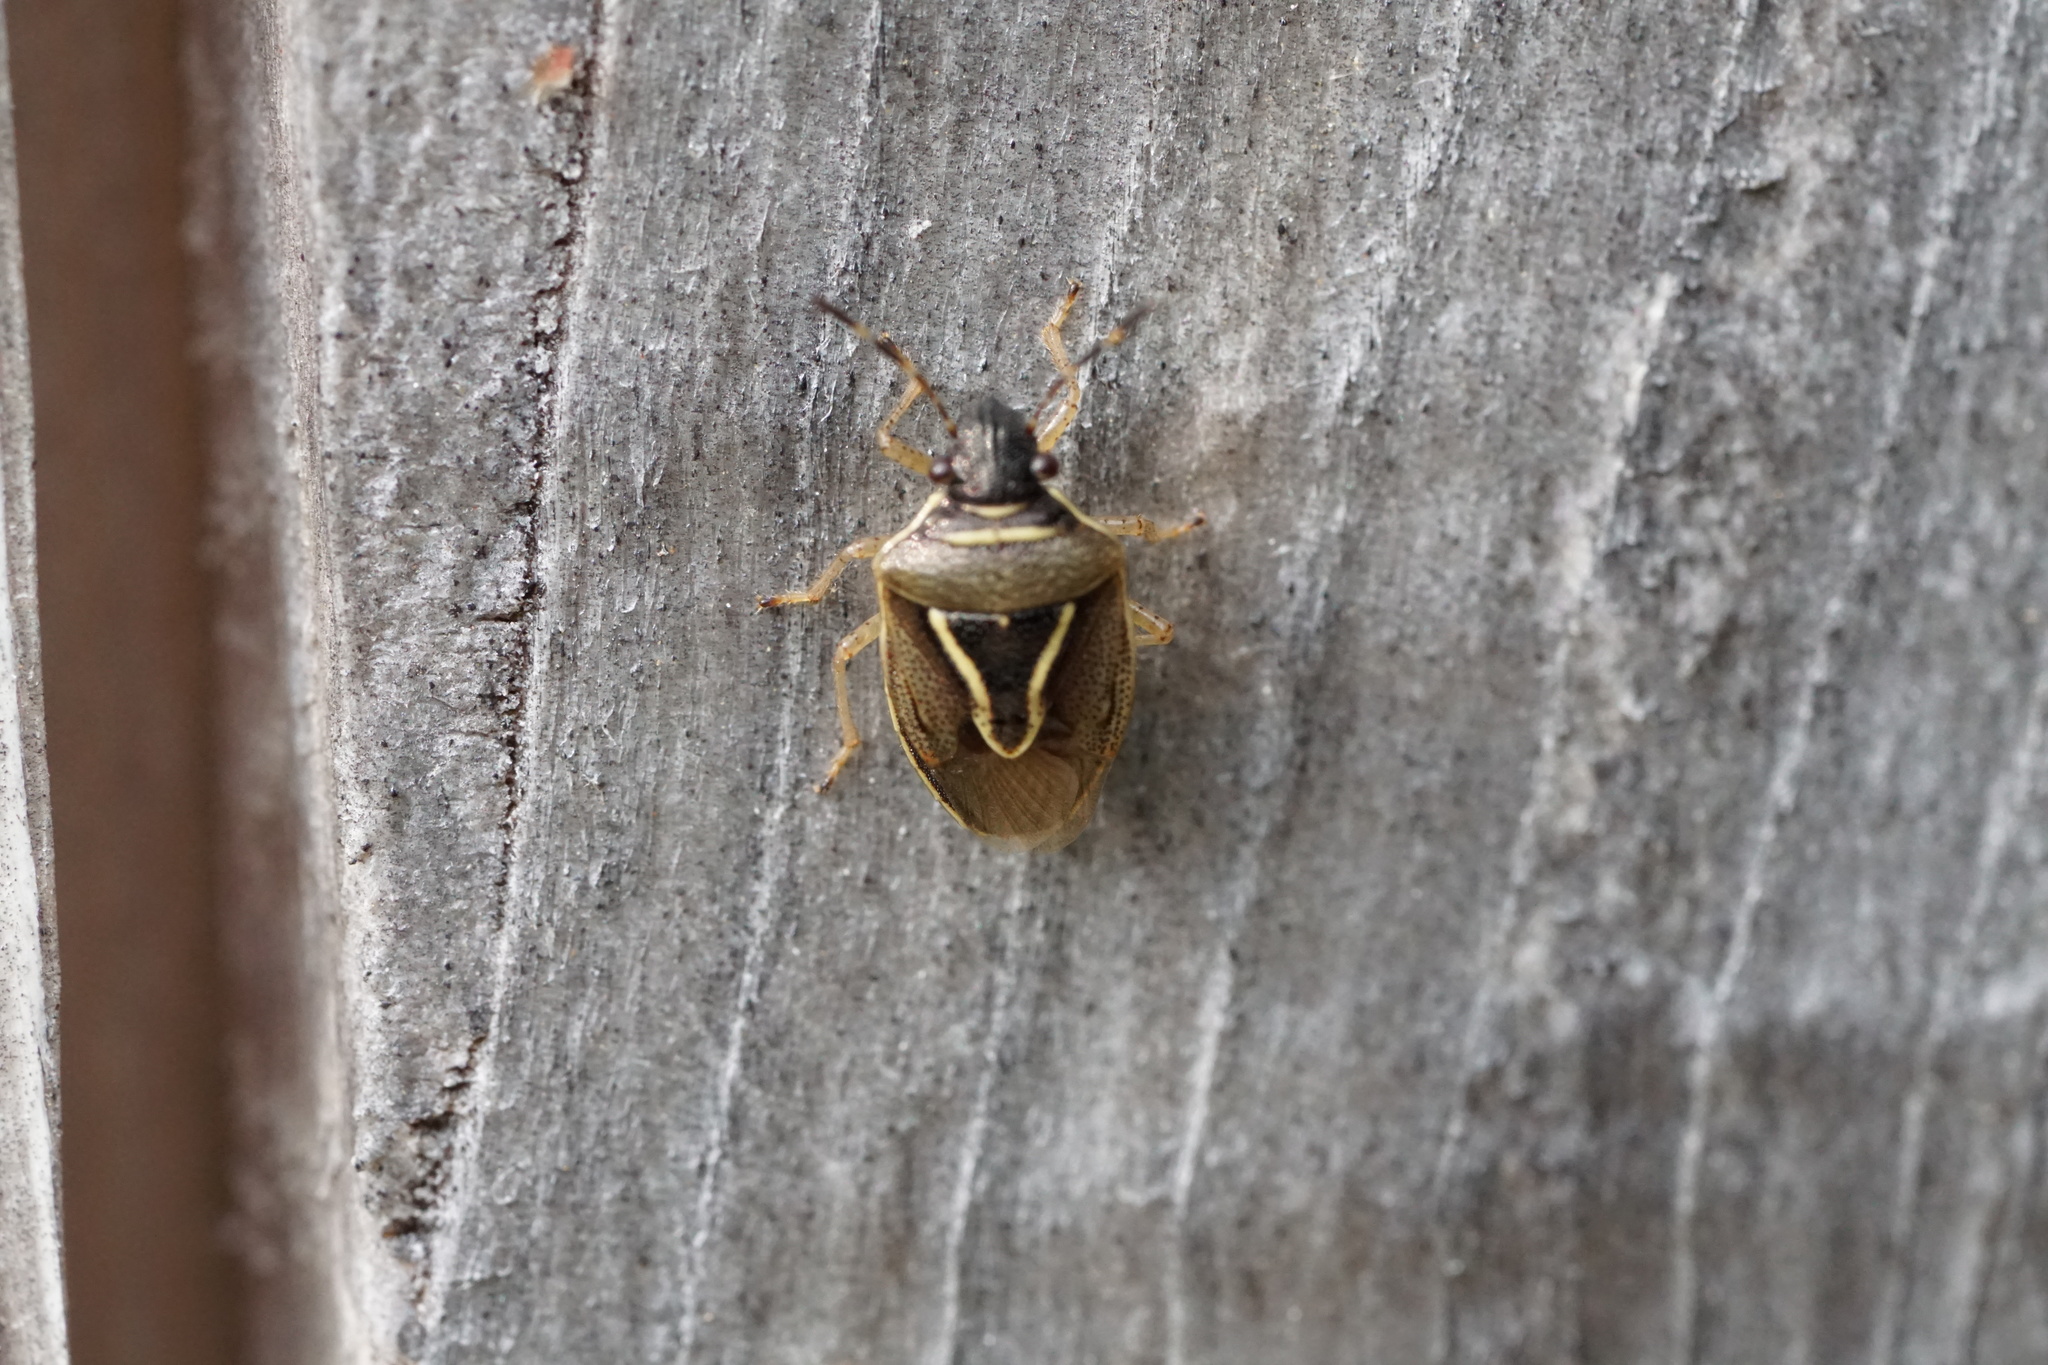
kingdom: Animalia
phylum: Arthropoda
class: Insecta
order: Hemiptera
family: Pentatomidae
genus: Mormidea
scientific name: Mormidea lugens
